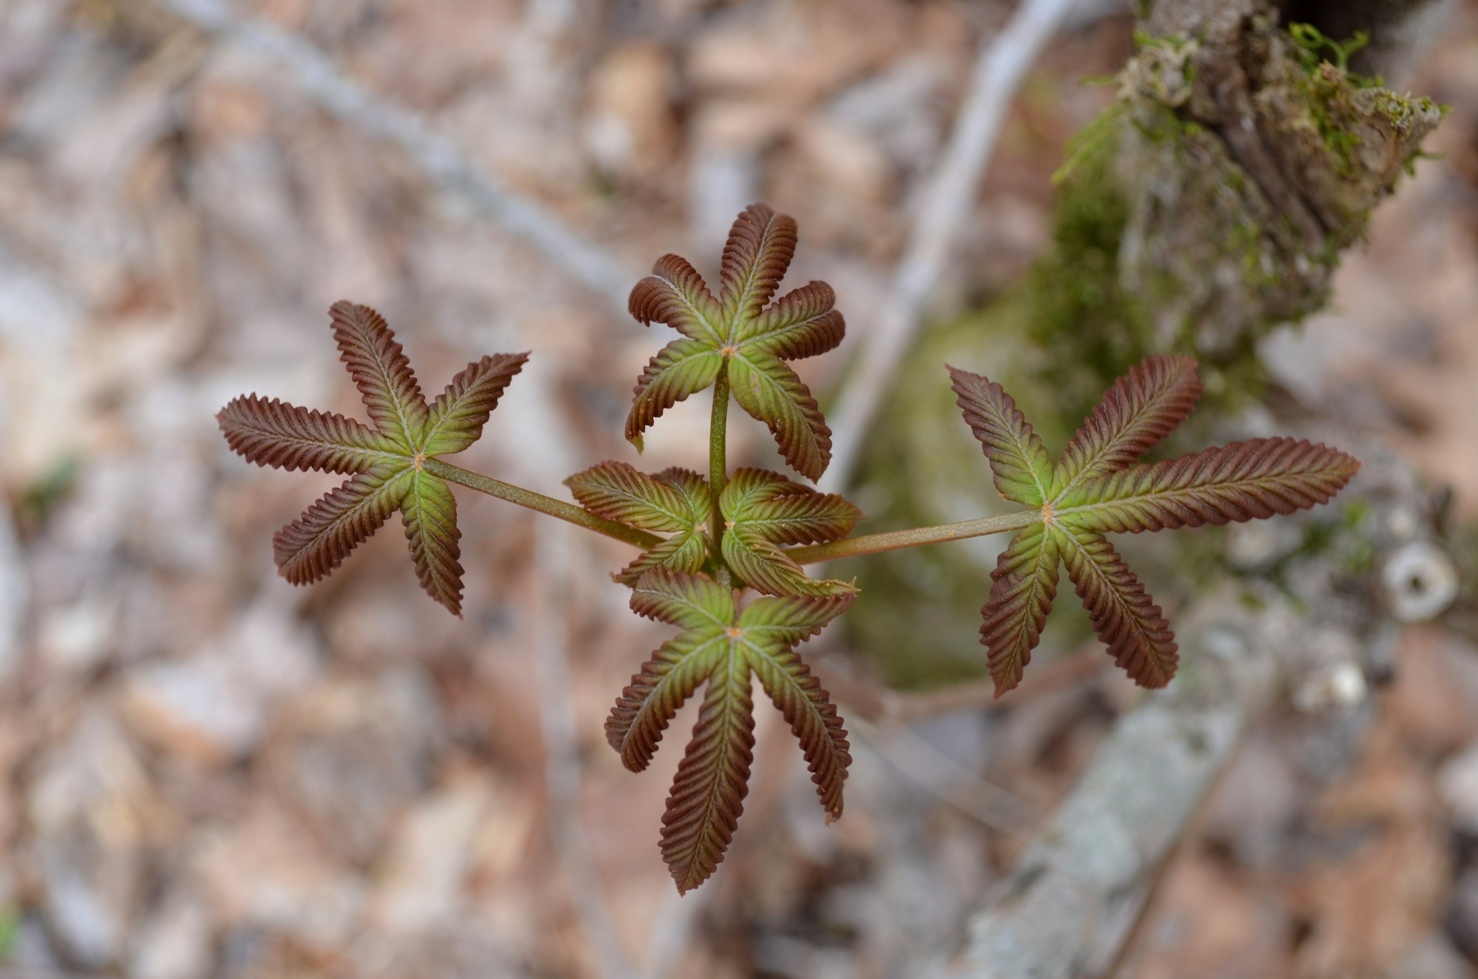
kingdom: Plantae
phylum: Tracheophyta
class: Magnoliopsida
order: Sapindales
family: Sapindaceae
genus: Aesculus
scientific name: Aesculus flava
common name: Yellow buckeye
